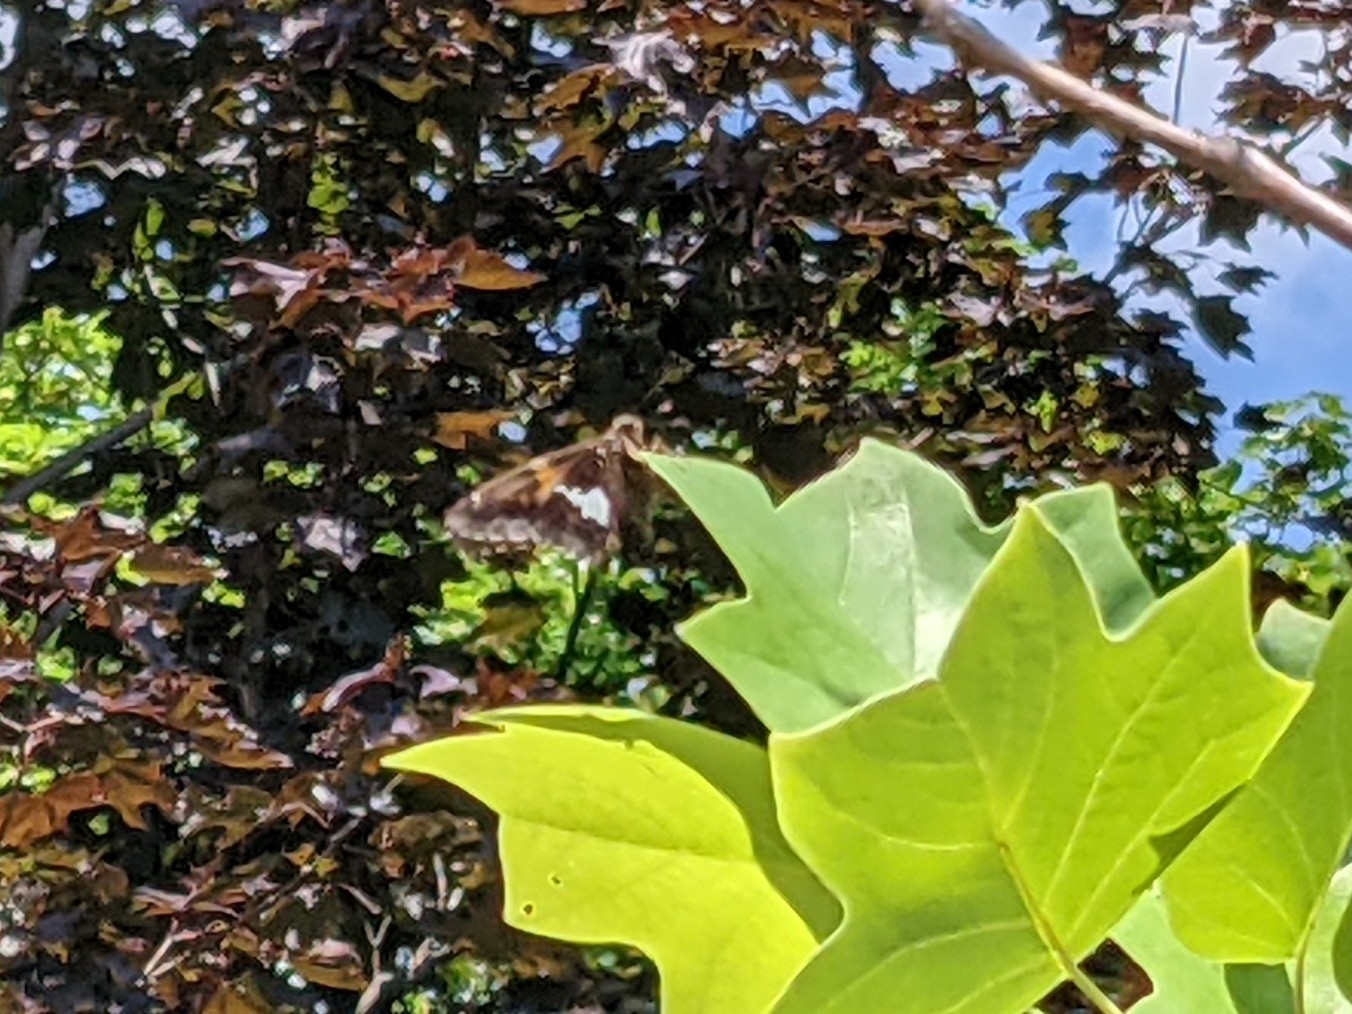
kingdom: Animalia
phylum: Arthropoda
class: Insecta
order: Lepidoptera
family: Hesperiidae
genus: Epargyreus
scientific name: Epargyreus clarus
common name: Silver-spotted skipper
